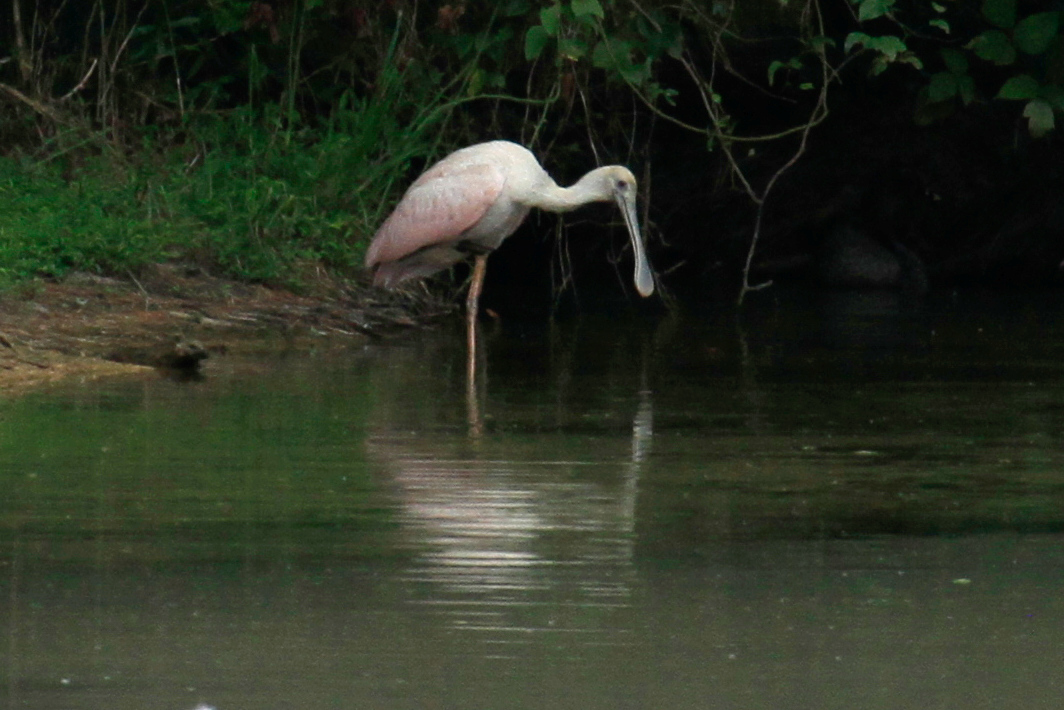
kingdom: Animalia
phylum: Chordata
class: Aves
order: Pelecaniformes
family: Threskiornithidae
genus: Platalea
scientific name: Platalea ajaja
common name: Roseate spoonbill
